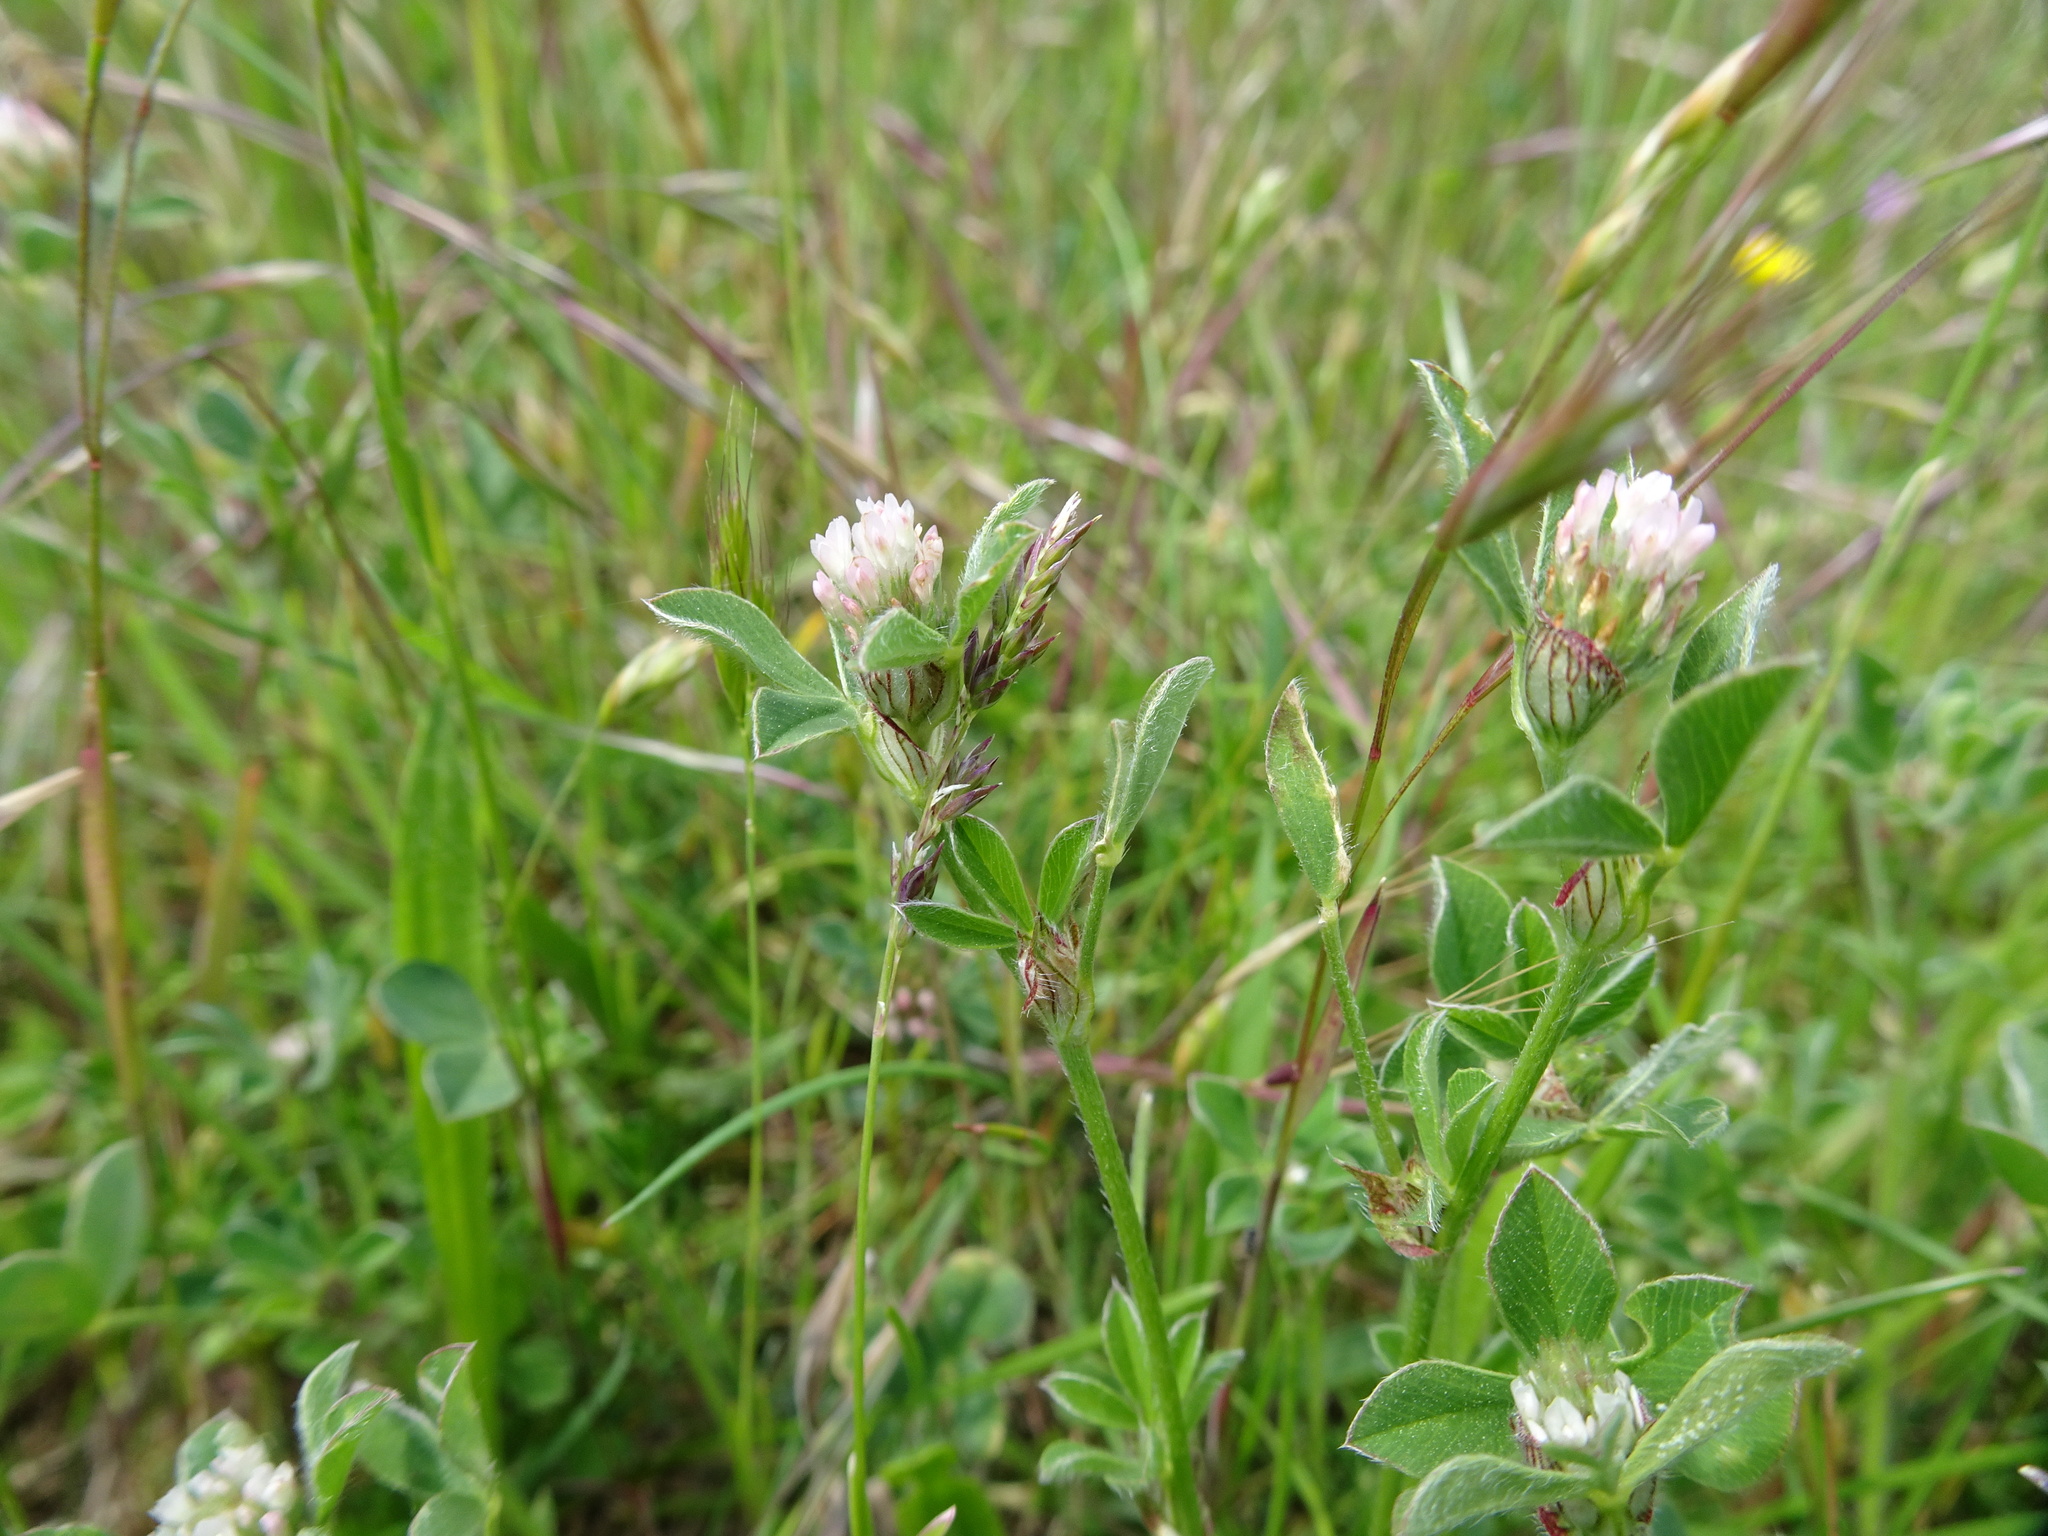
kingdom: Plantae
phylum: Tracheophyta
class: Magnoliopsida
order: Fabales
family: Fabaceae
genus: Trifolium
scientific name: Trifolium striatum
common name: Knotted clover
